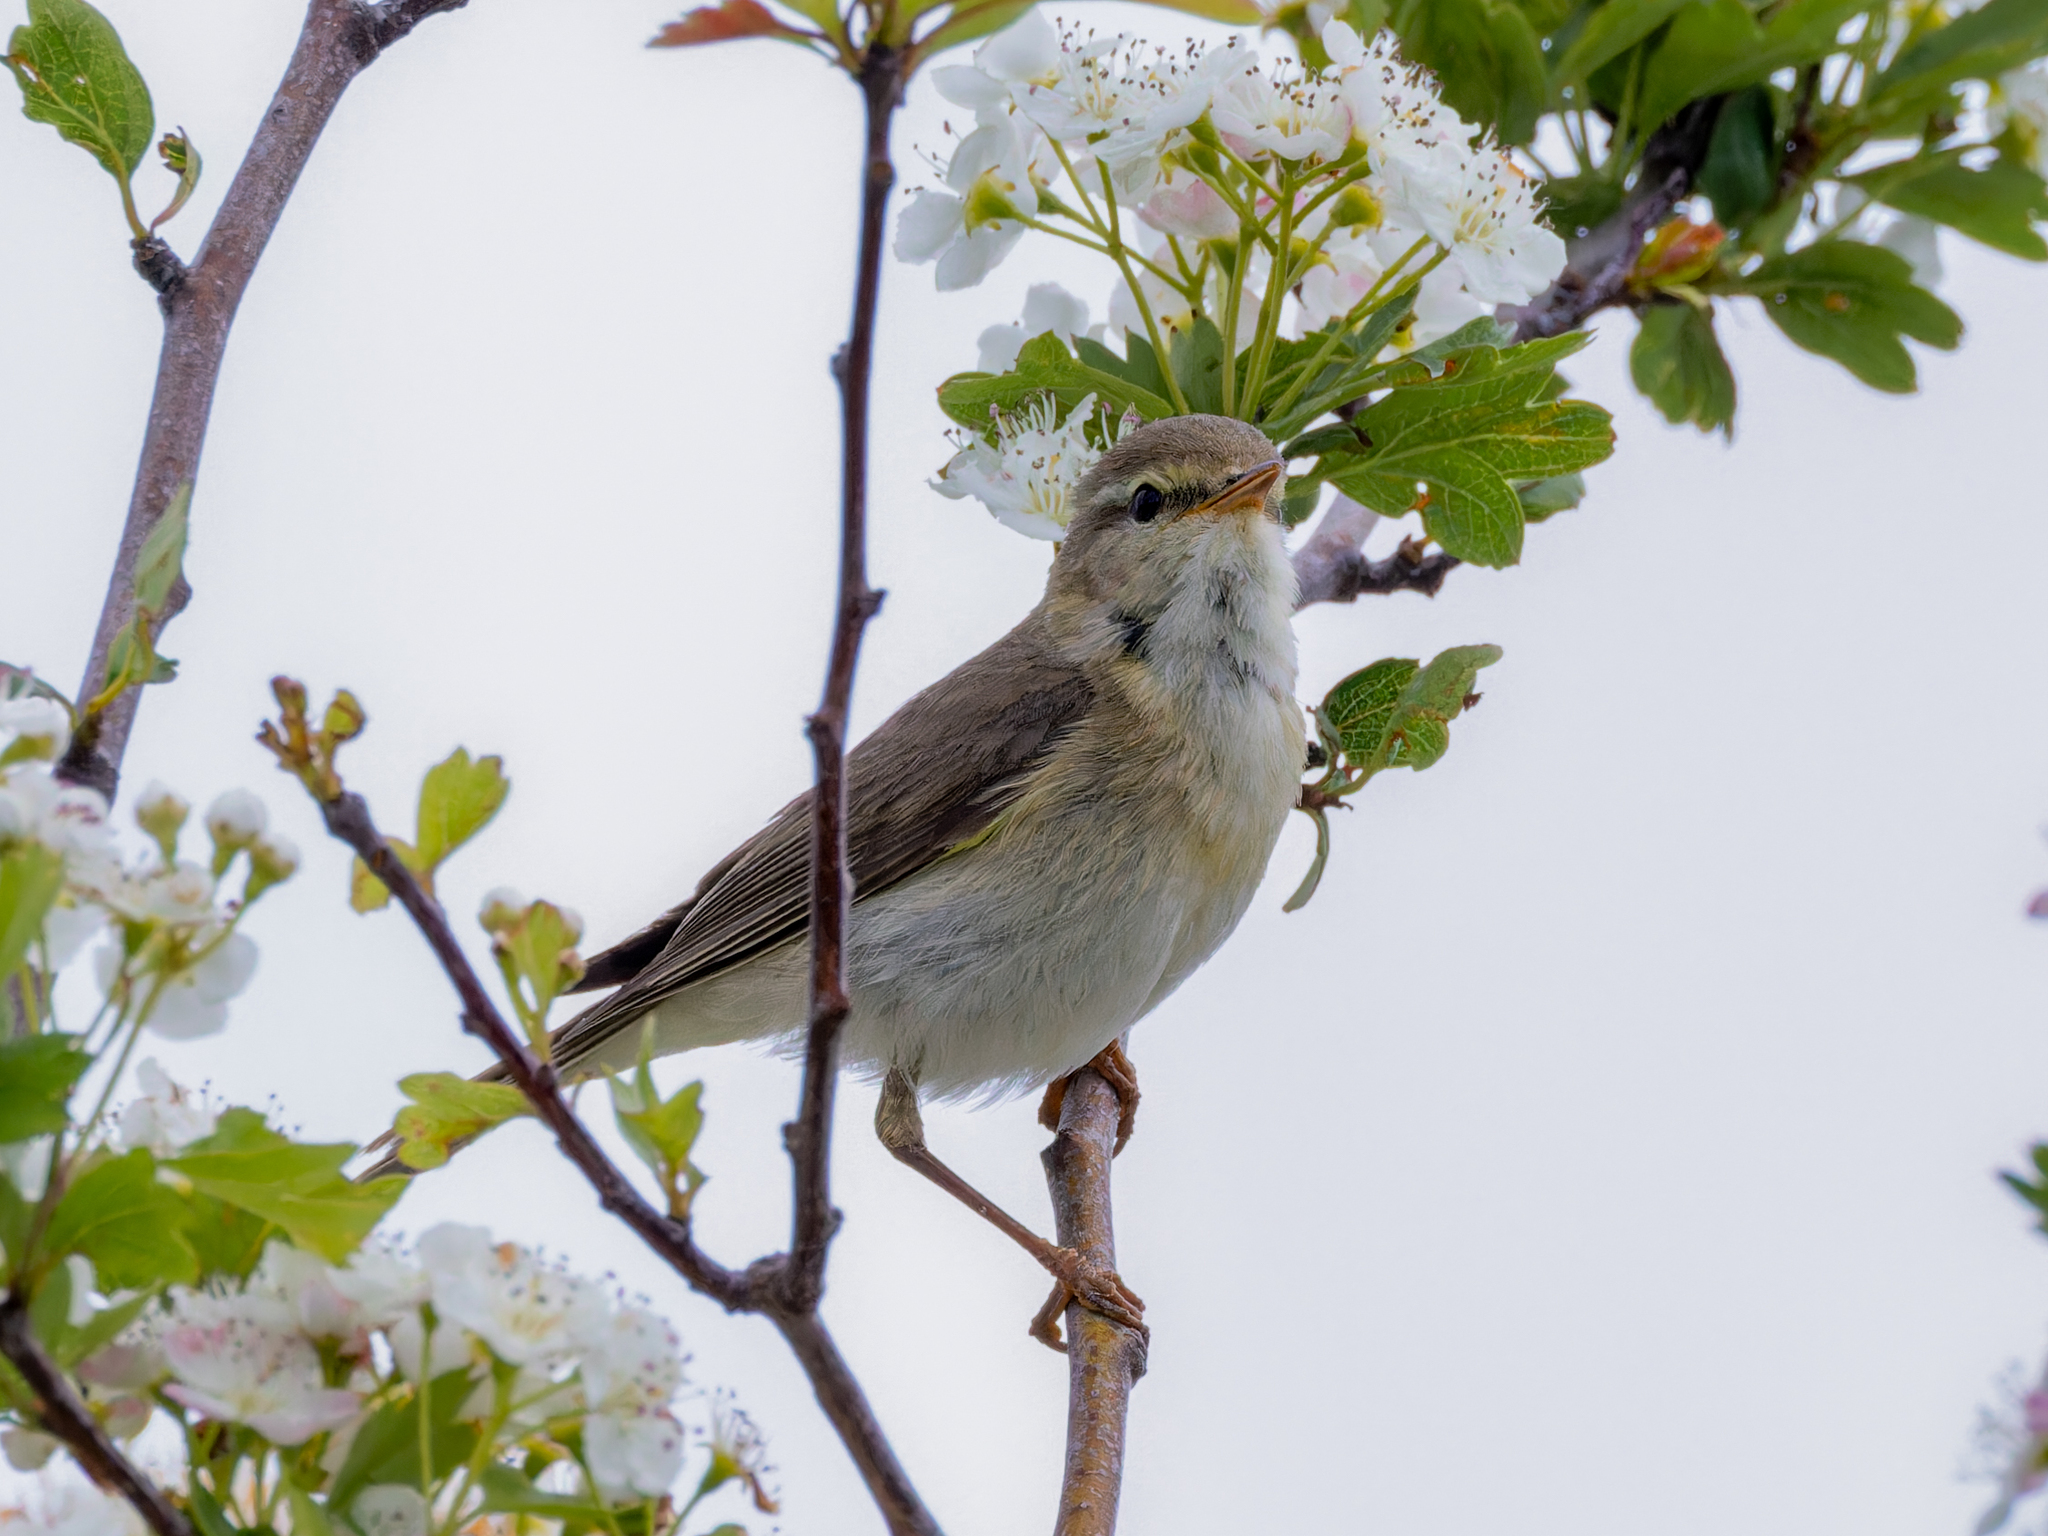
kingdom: Animalia
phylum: Chordata
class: Aves
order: Passeriformes
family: Phylloscopidae
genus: Phylloscopus
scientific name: Phylloscopus trochilus
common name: Willow warbler
